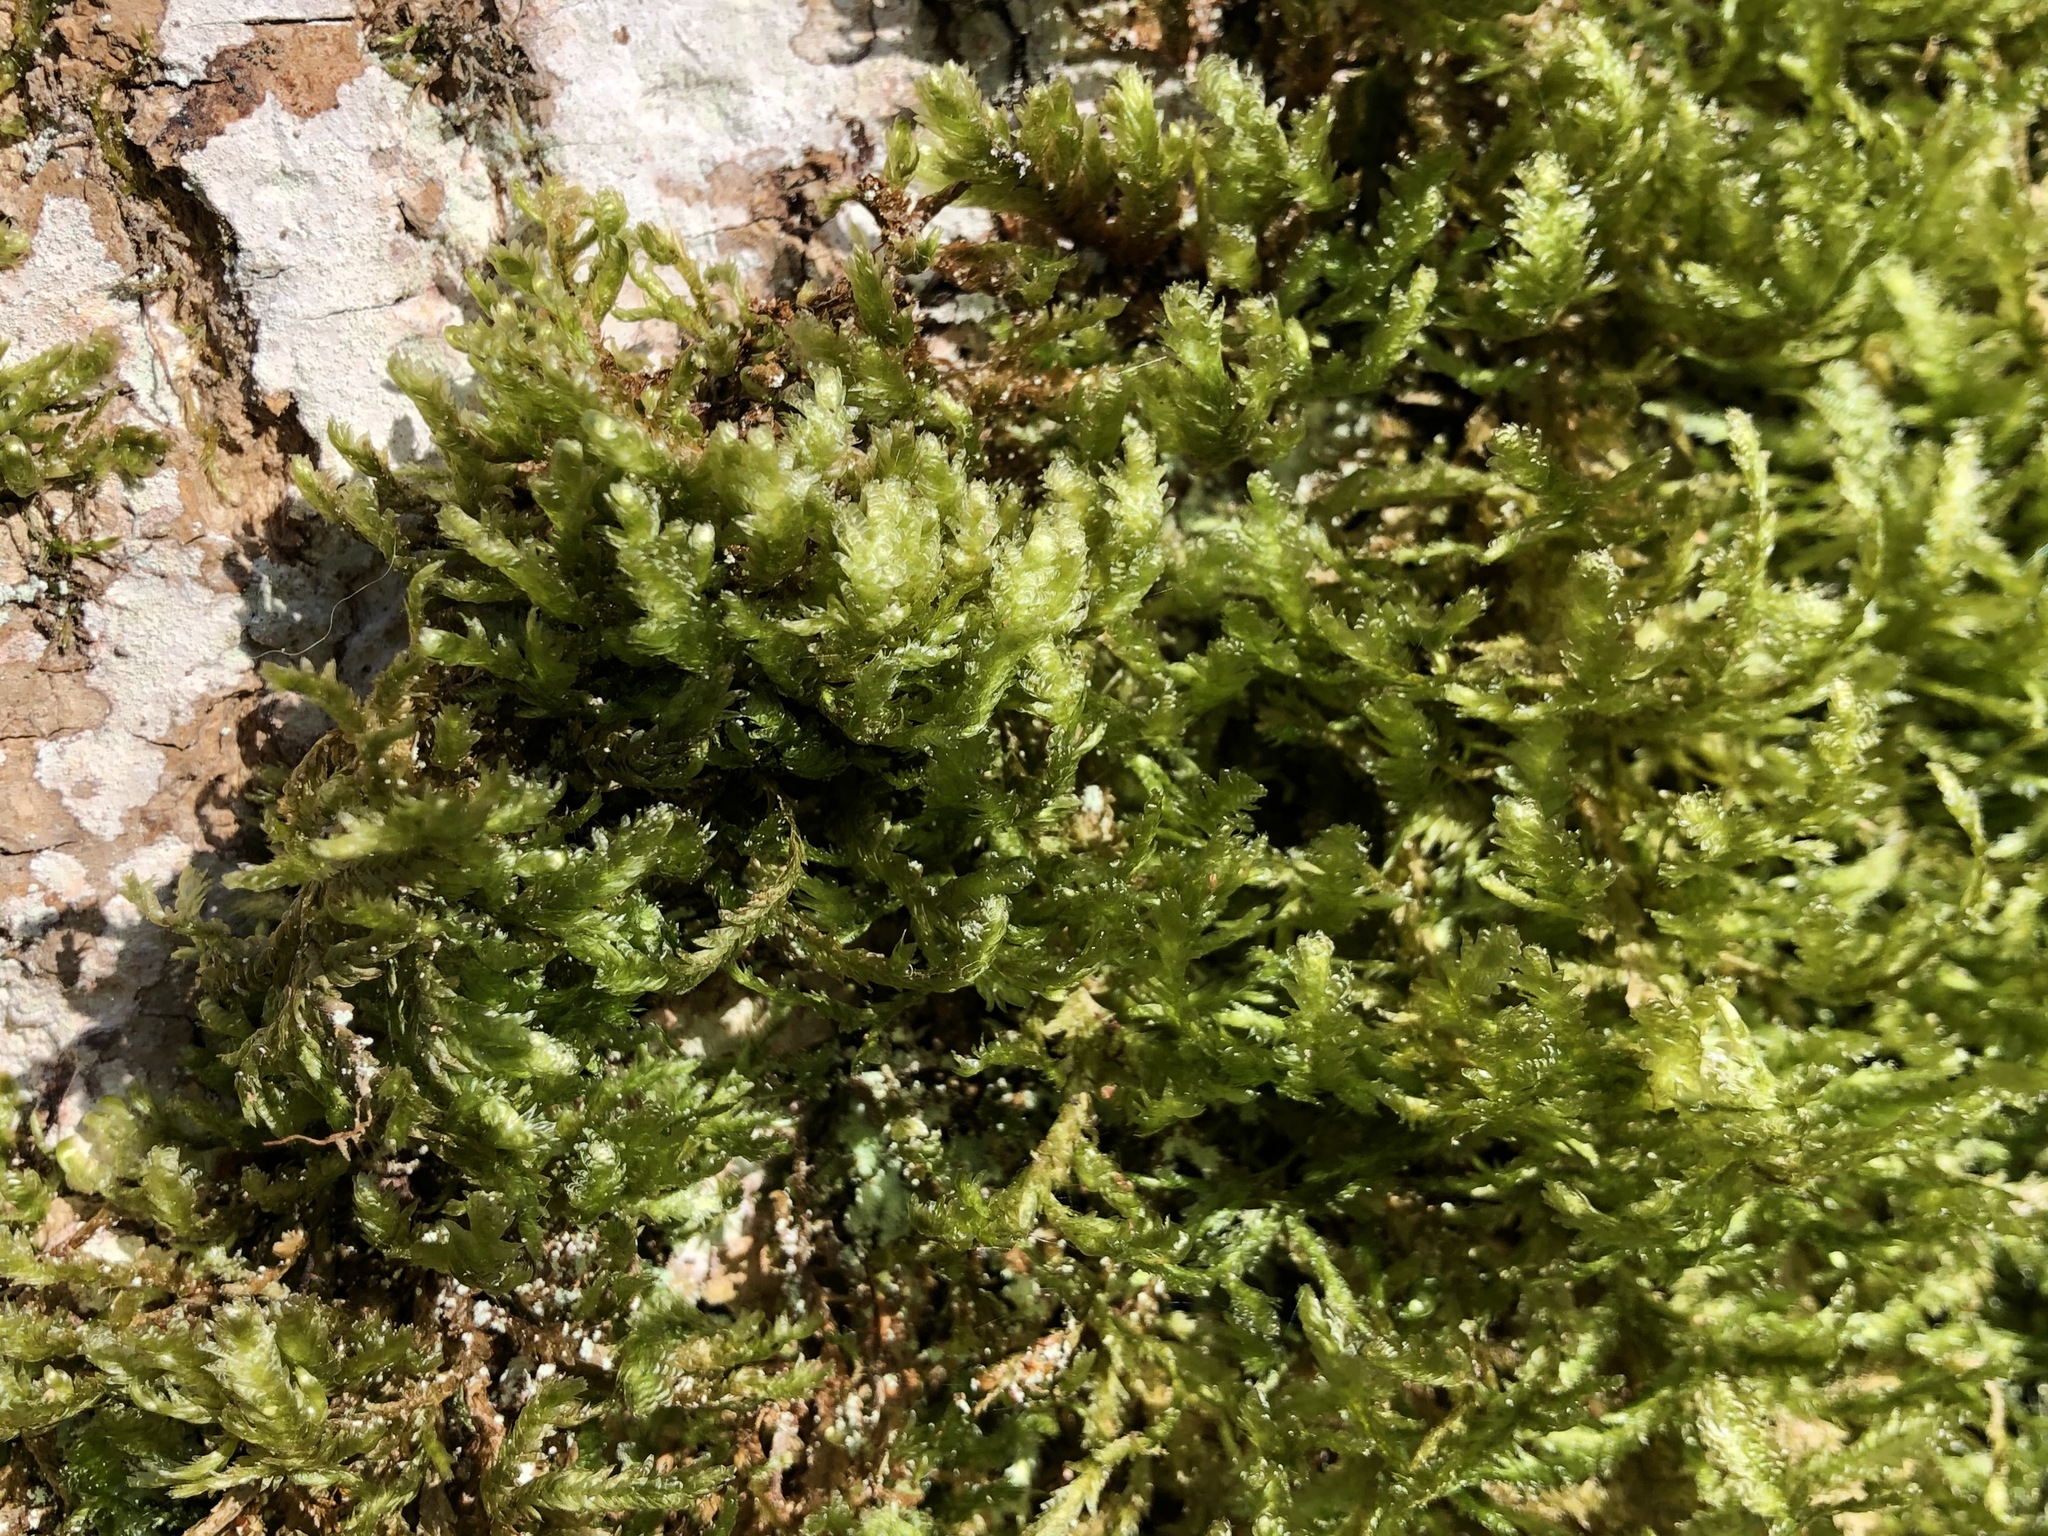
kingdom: Plantae
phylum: Bryophyta
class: Bryopsida
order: Hypnales
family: Neckeraceae
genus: Exsertotheca
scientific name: Exsertotheca crispa
